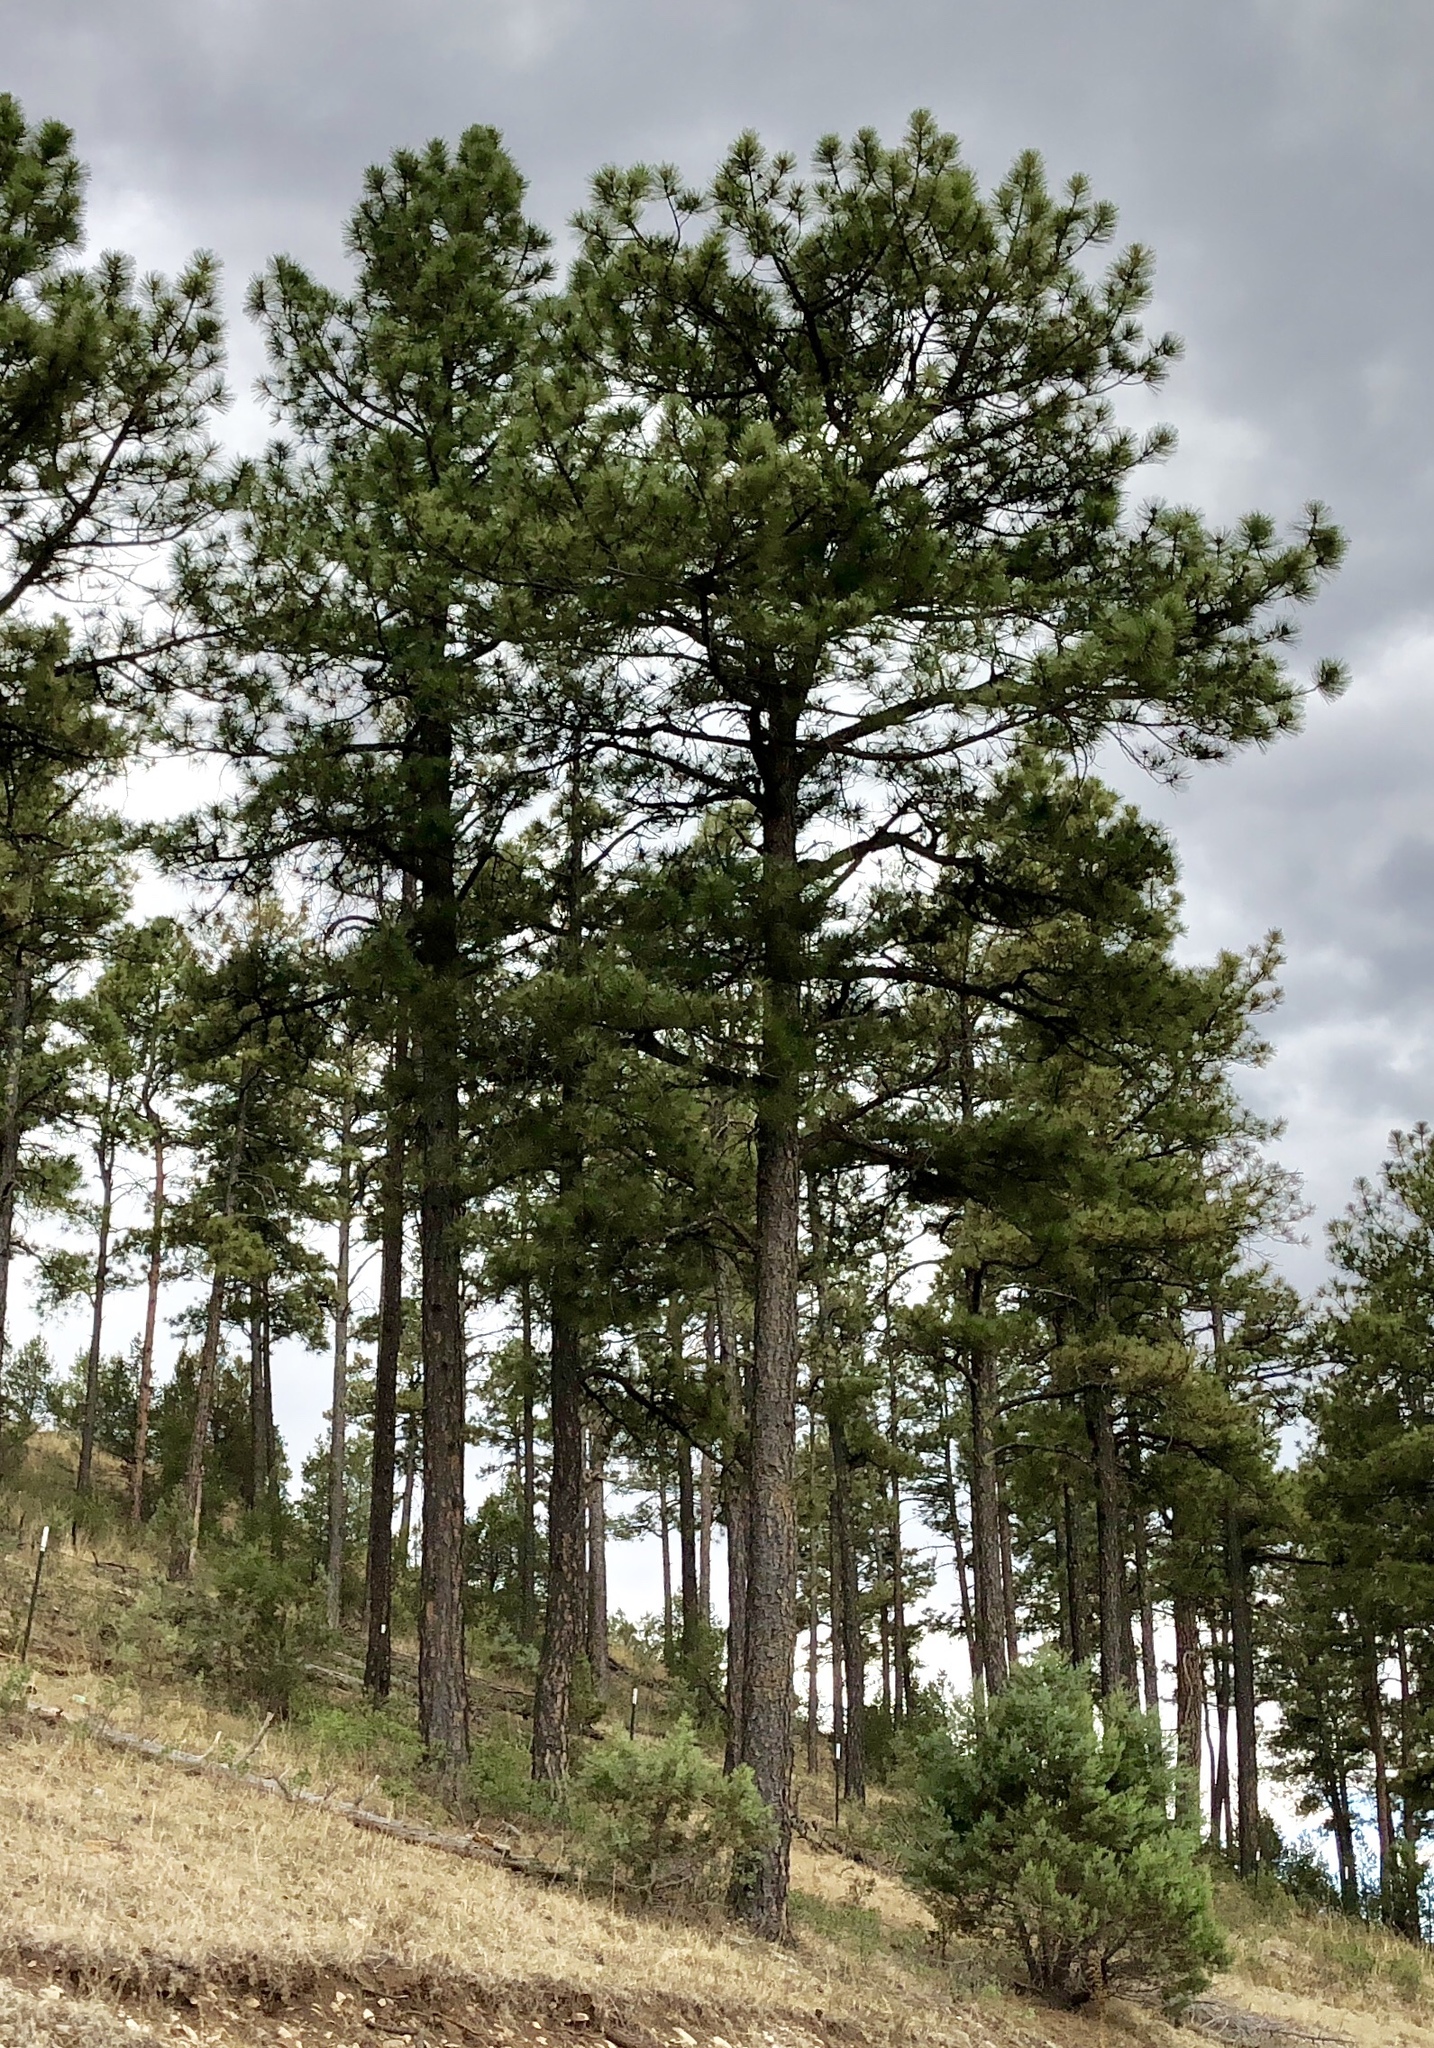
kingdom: Plantae
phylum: Tracheophyta
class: Pinopsida
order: Pinales
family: Pinaceae
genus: Pinus
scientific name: Pinus ponderosa
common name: Western yellow-pine
